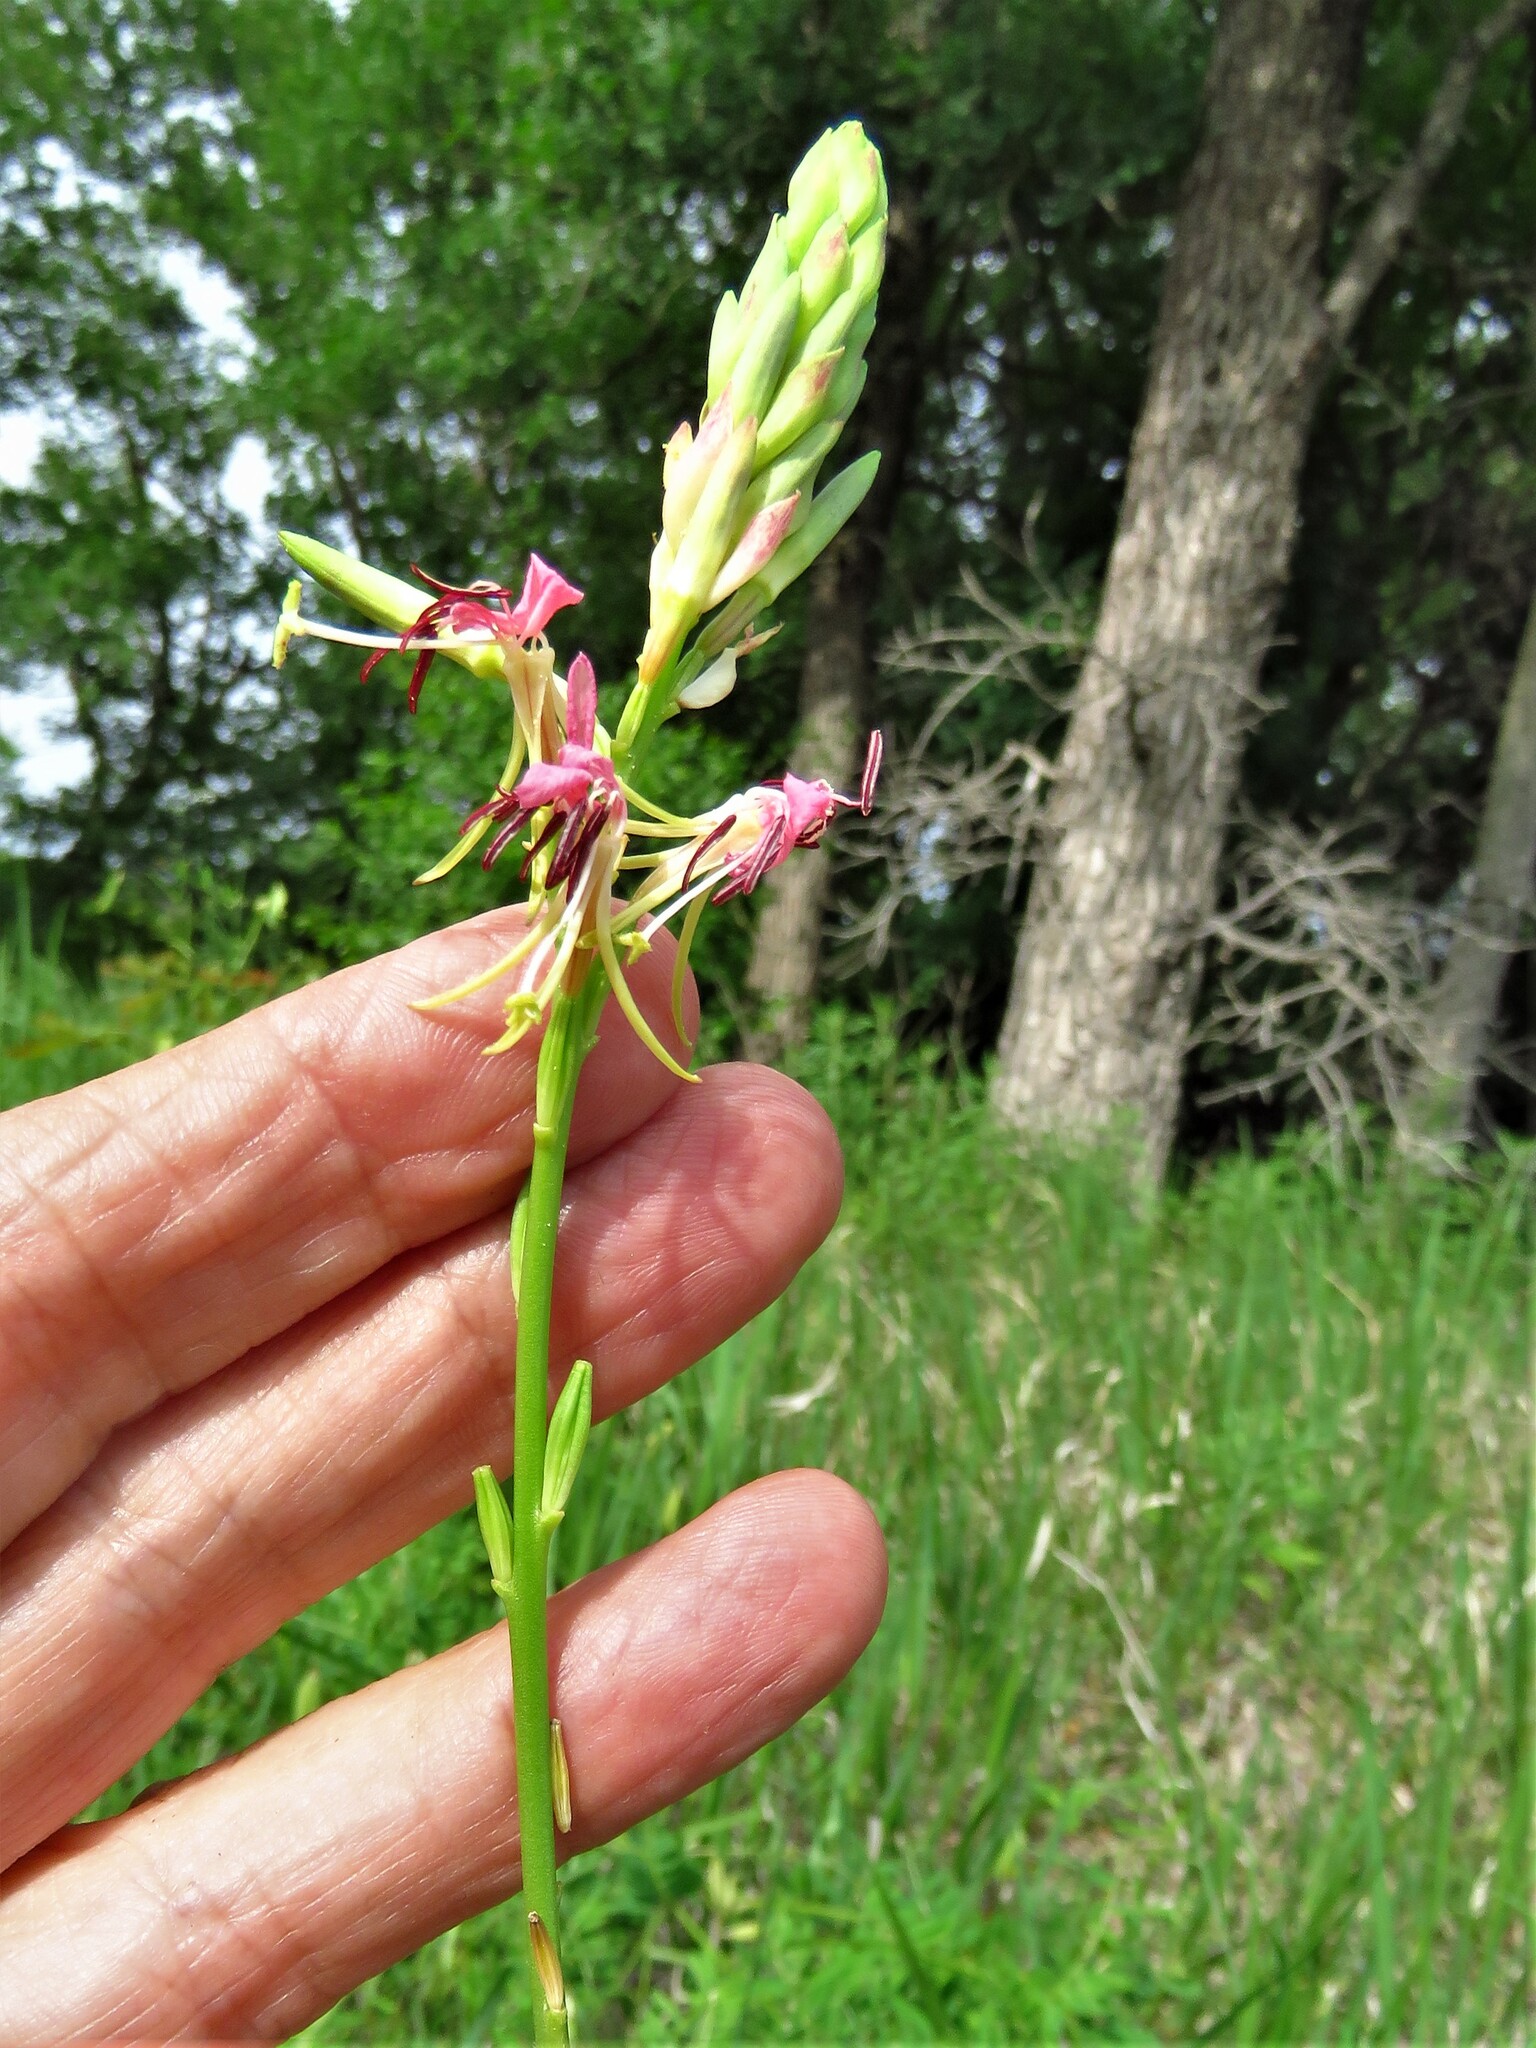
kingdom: Plantae
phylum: Tracheophyta
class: Magnoliopsida
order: Myrtales
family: Onagraceae
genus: Oenothera
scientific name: Oenothera suffulta
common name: Kisses
